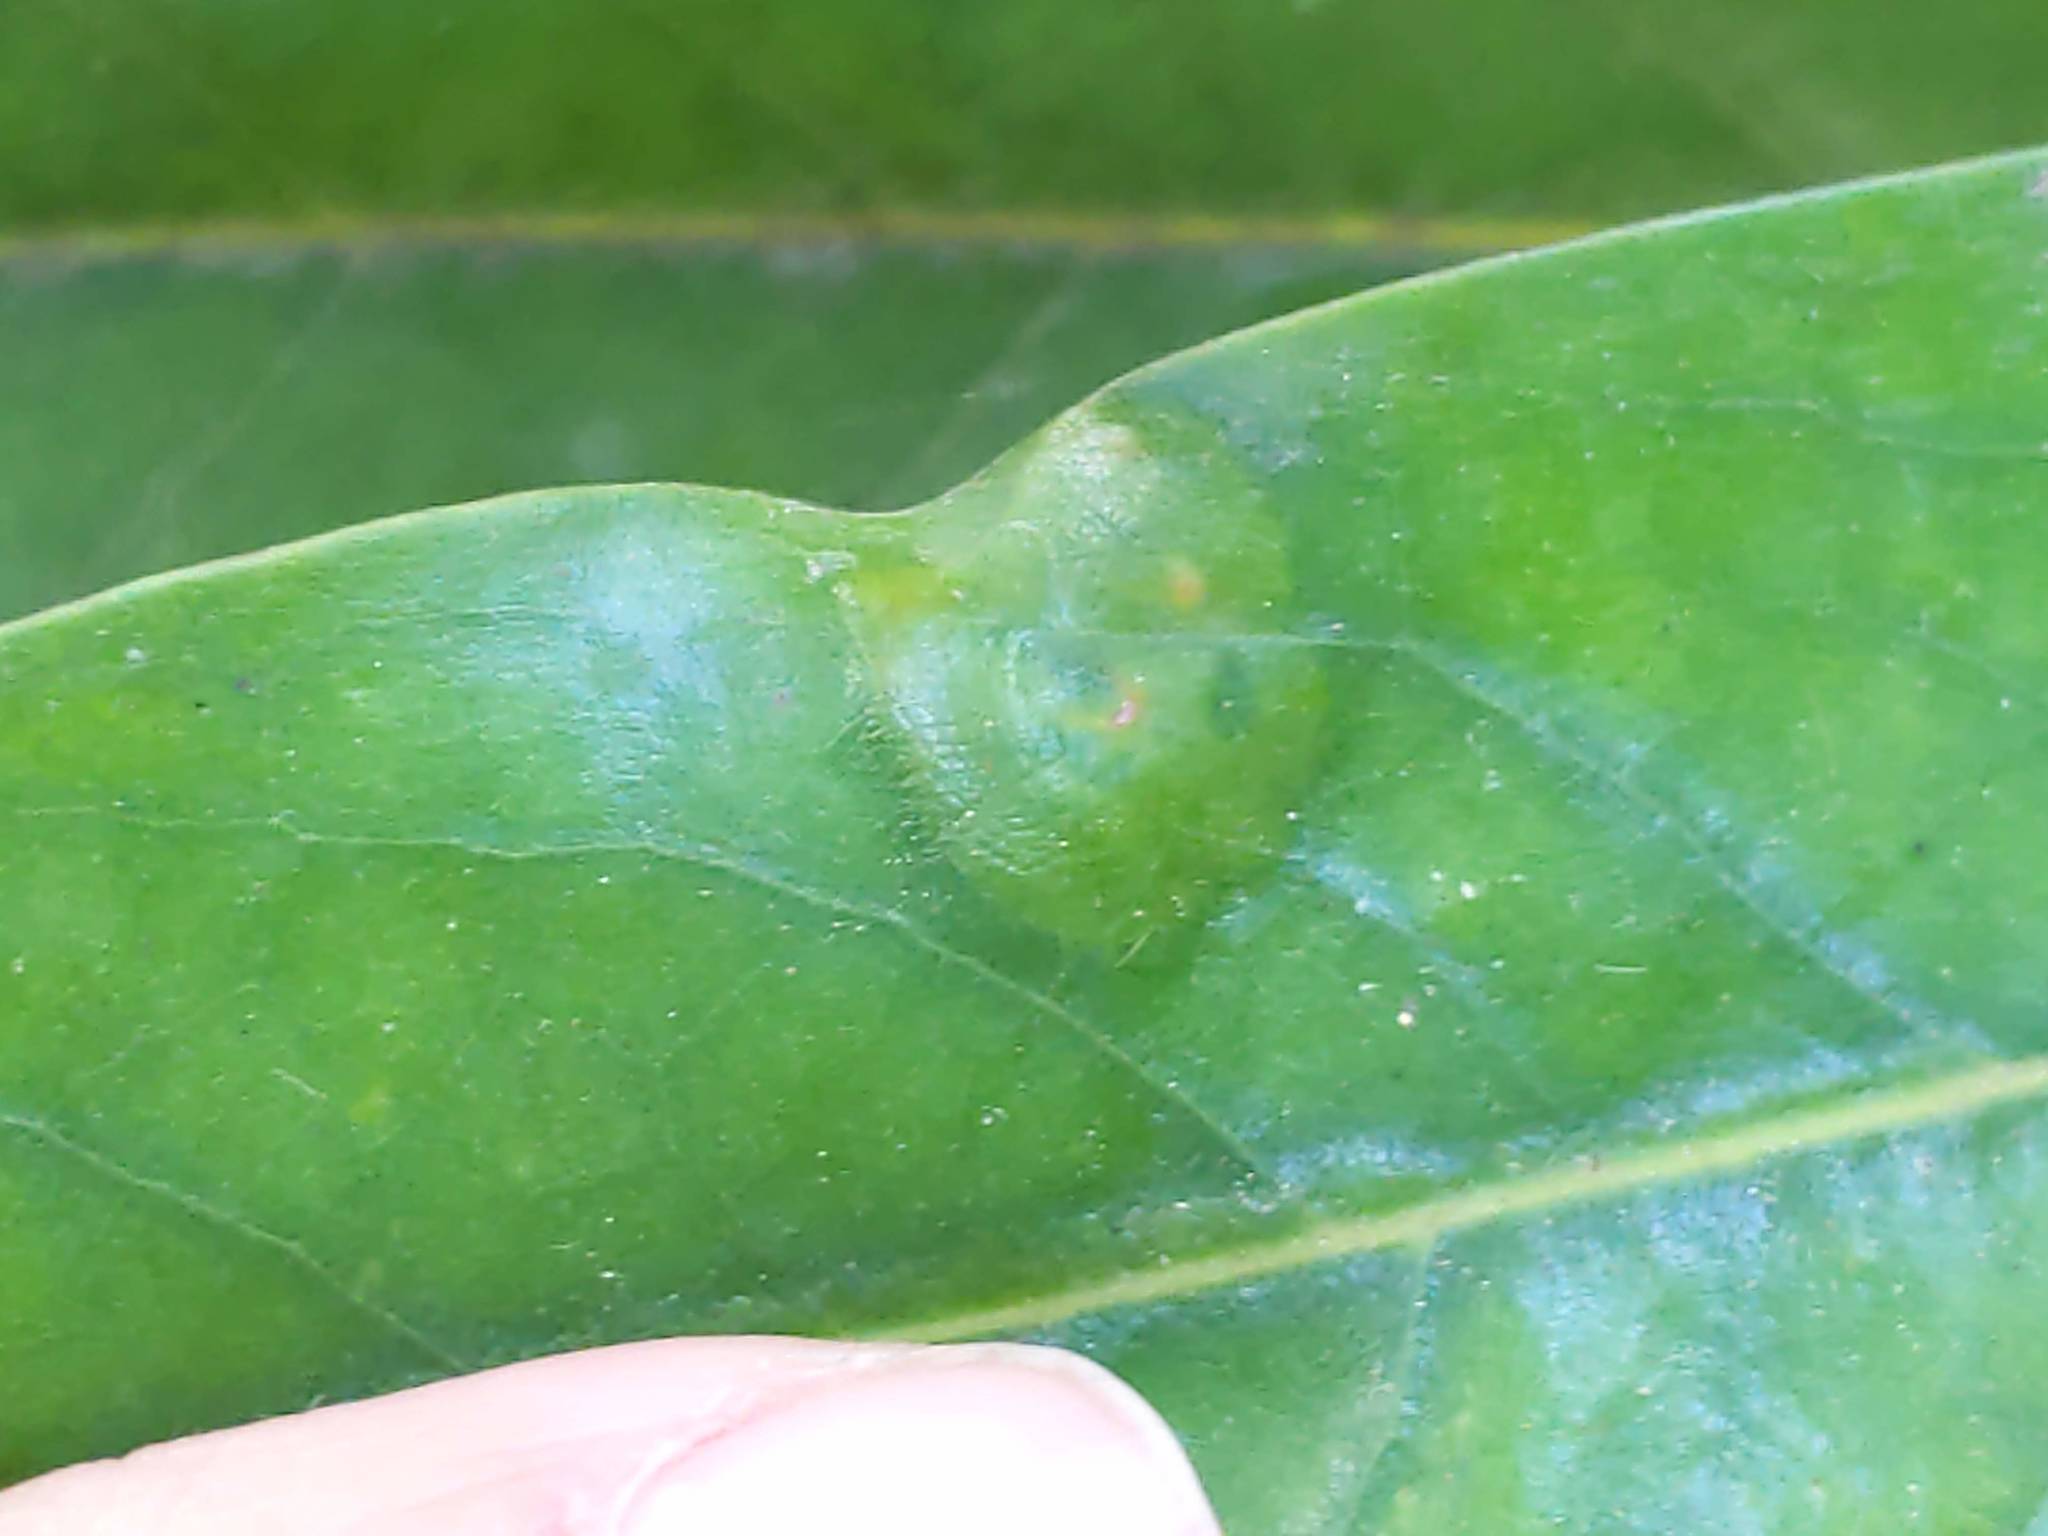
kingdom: Animalia
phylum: Arthropoda
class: Insecta
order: Lepidoptera
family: Gracillariidae
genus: Phyllocnistis
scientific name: Phyllocnistis liriodendronella
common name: Tulip tree leaf miner
